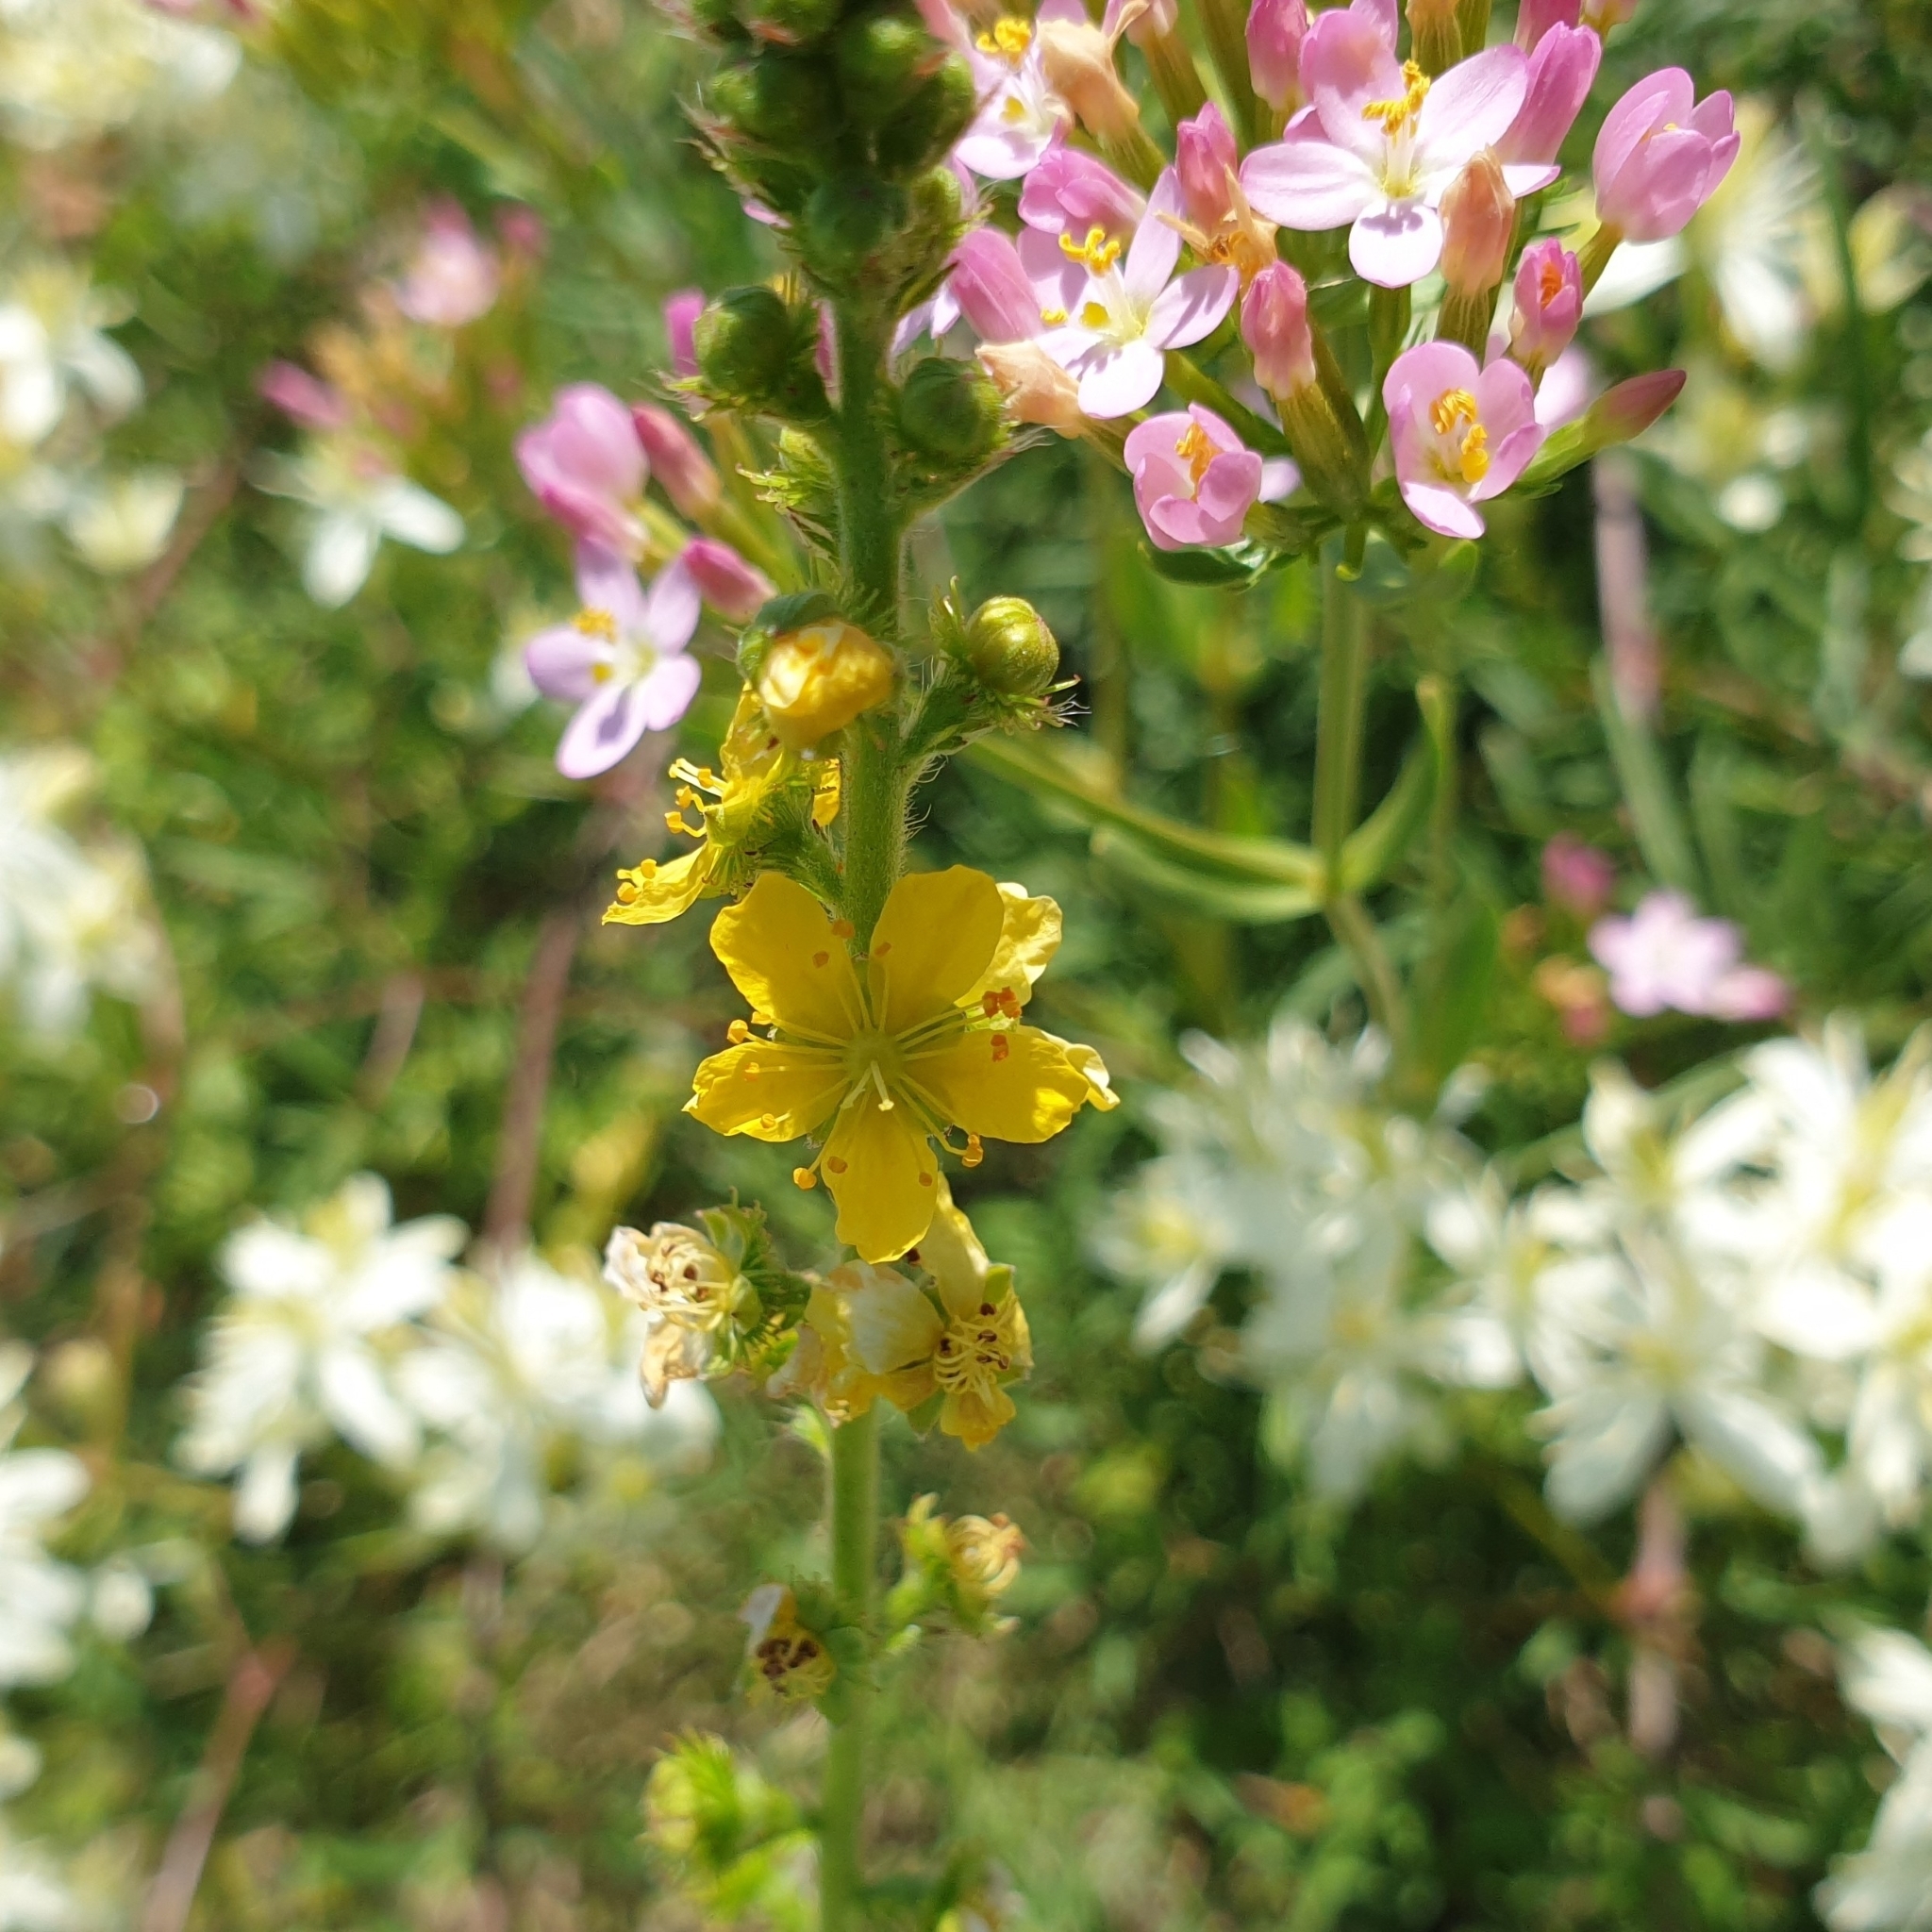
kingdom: Plantae
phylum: Tracheophyta
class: Magnoliopsida
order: Rosales
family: Rosaceae
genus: Agrimonia
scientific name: Agrimonia eupatoria
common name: Agrimony
